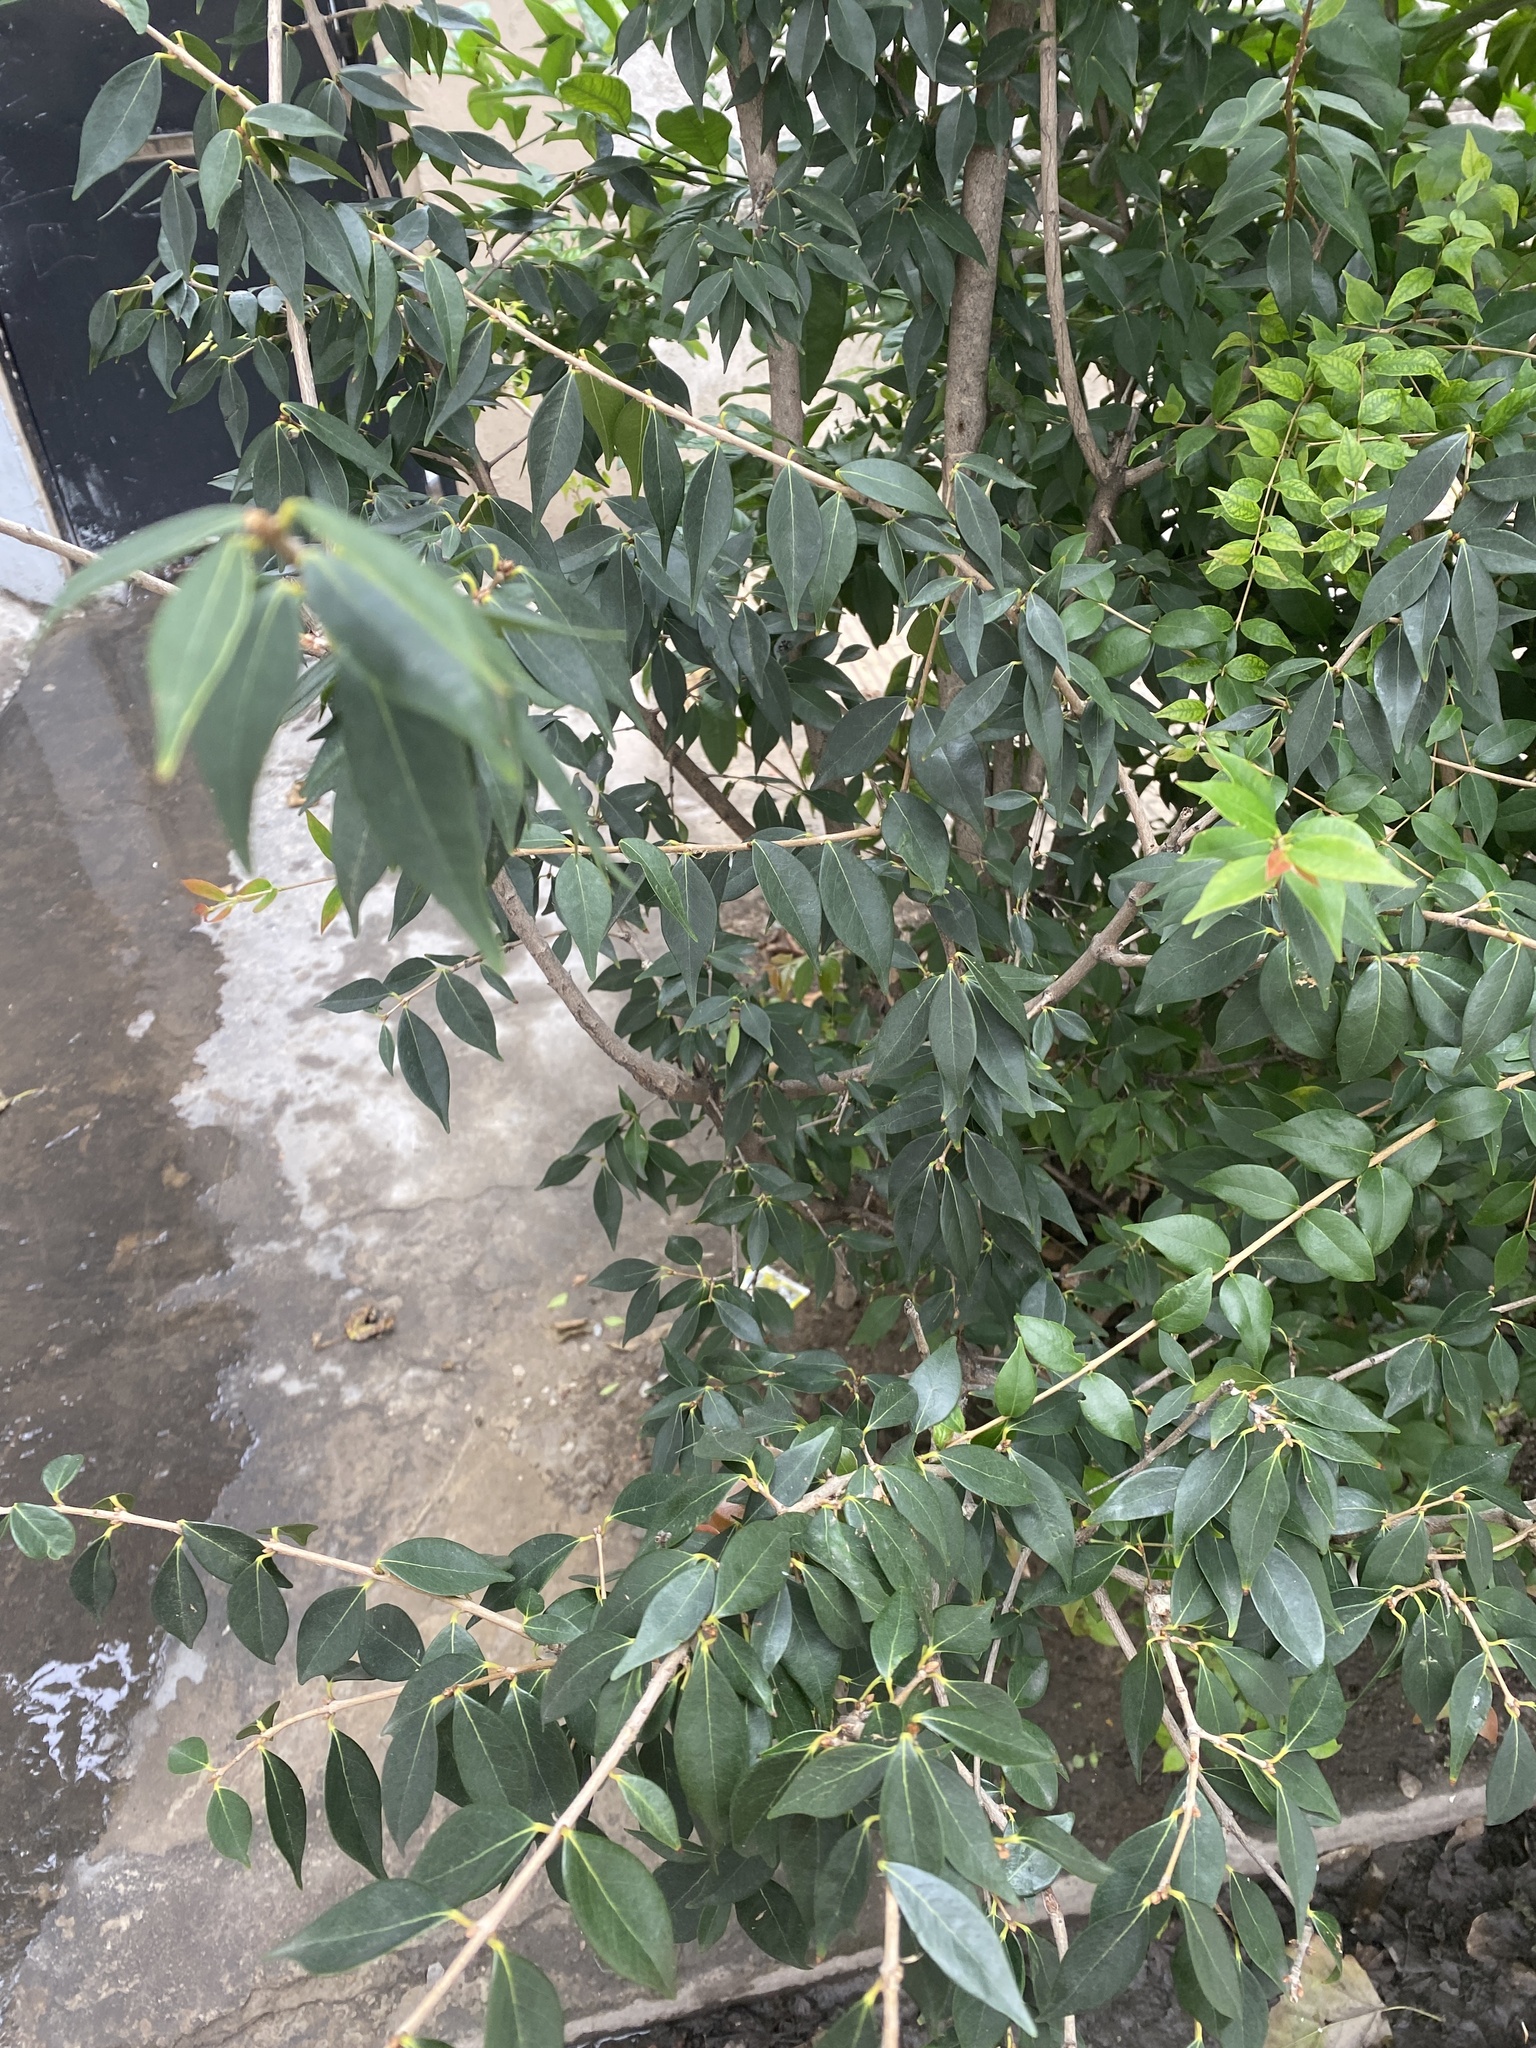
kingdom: Plantae
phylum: Tracheophyta
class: Magnoliopsida
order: Myrtales
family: Myrtaceae
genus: Blepharocalyx
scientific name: Blepharocalyx salicifolius
